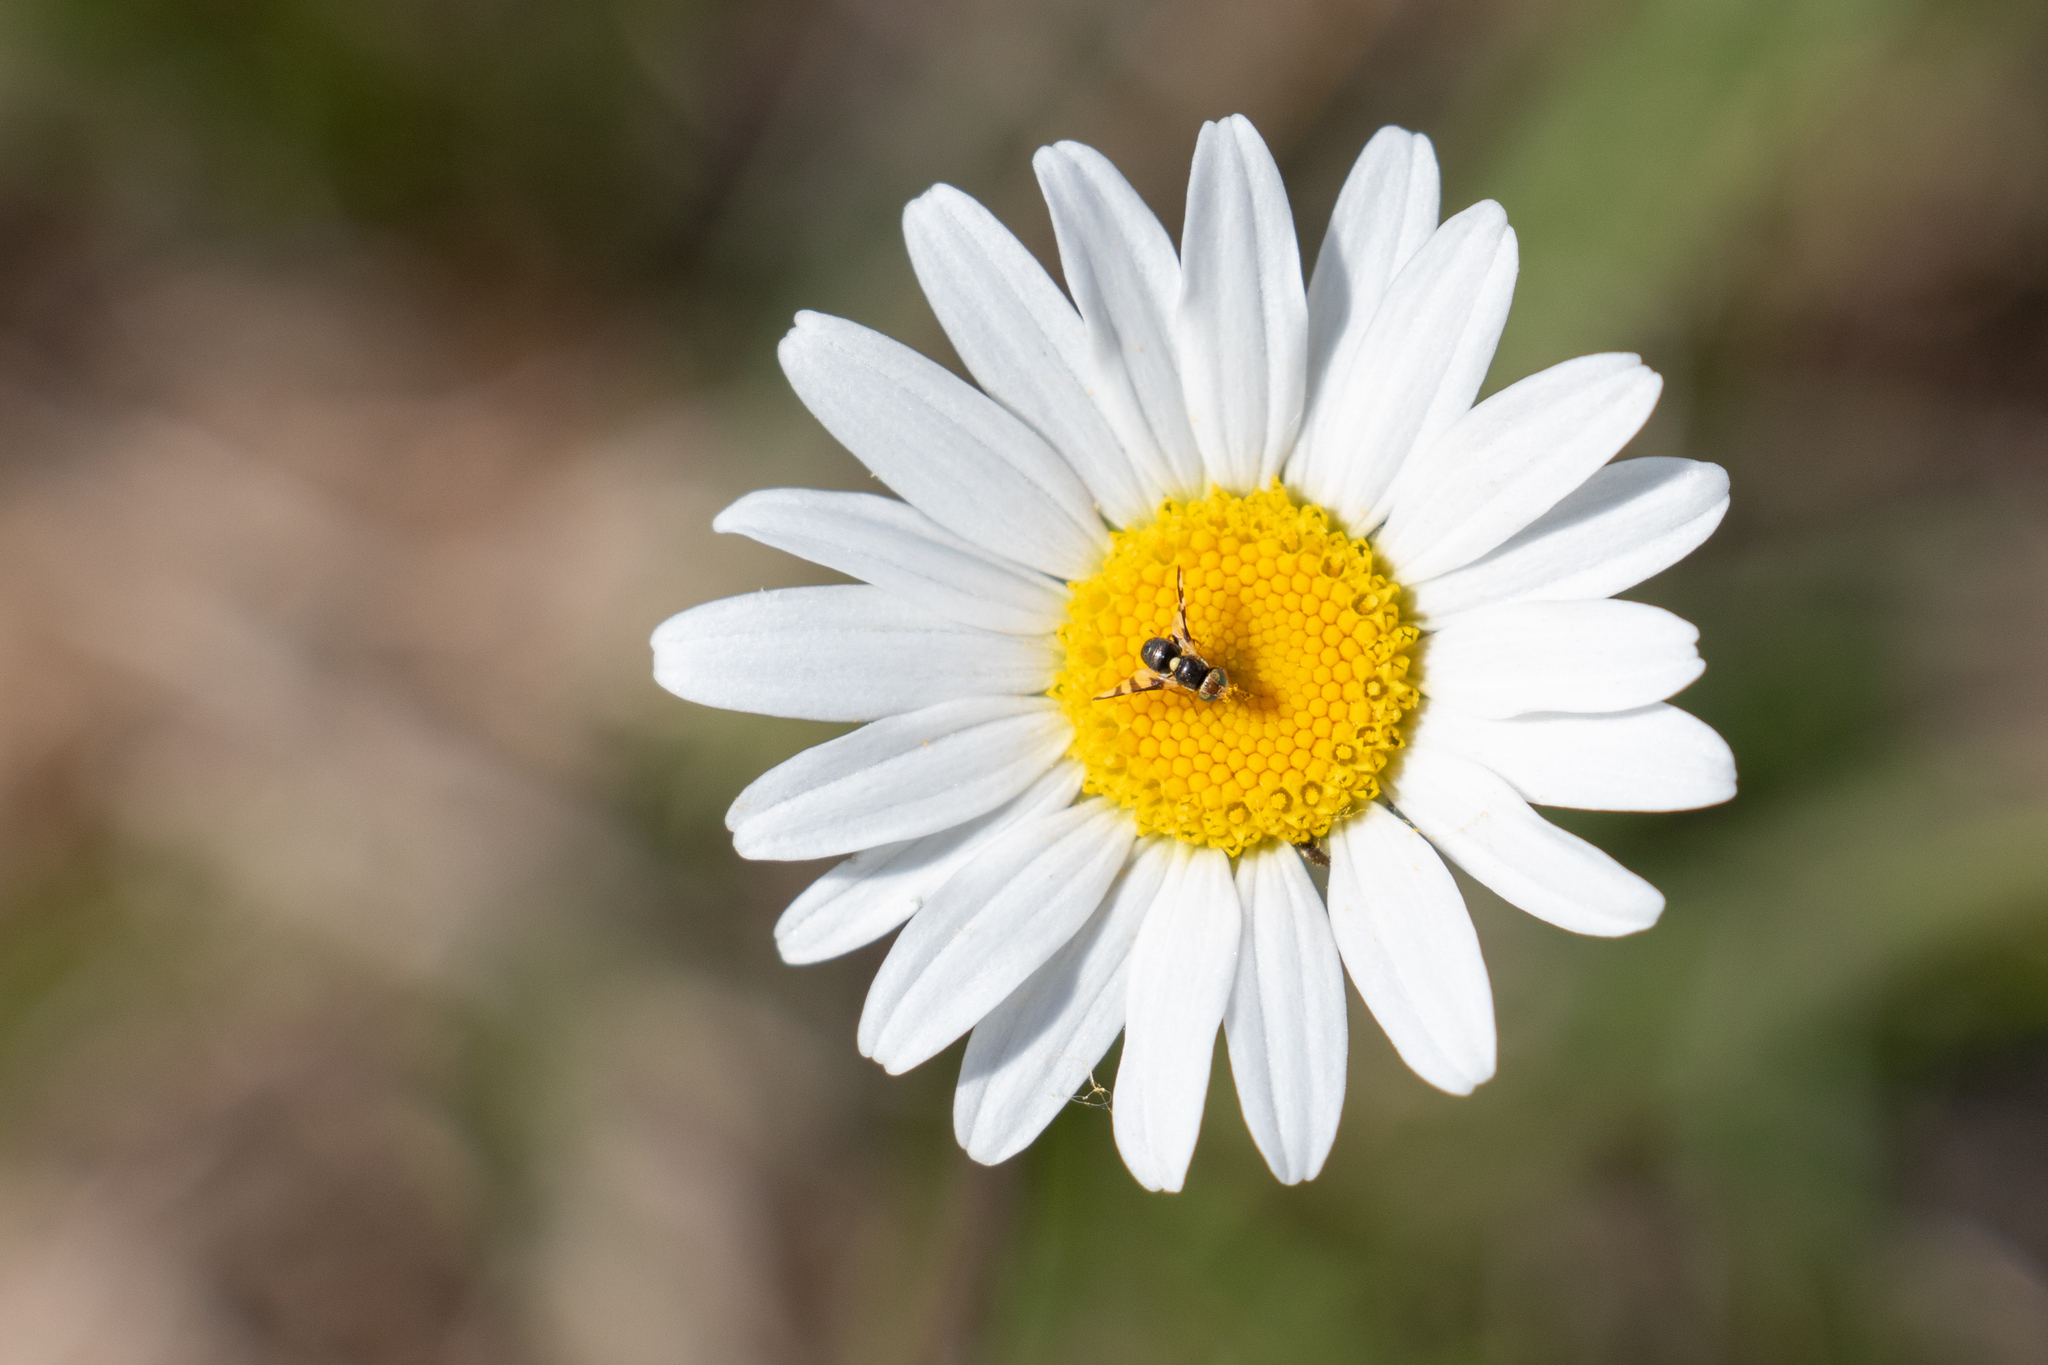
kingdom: Plantae
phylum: Tracheophyta
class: Magnoliopsida
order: Asterales
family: Asteraceae
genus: Leucanthemum
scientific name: Leucanthemum vulgare
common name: Oxeye daisy
